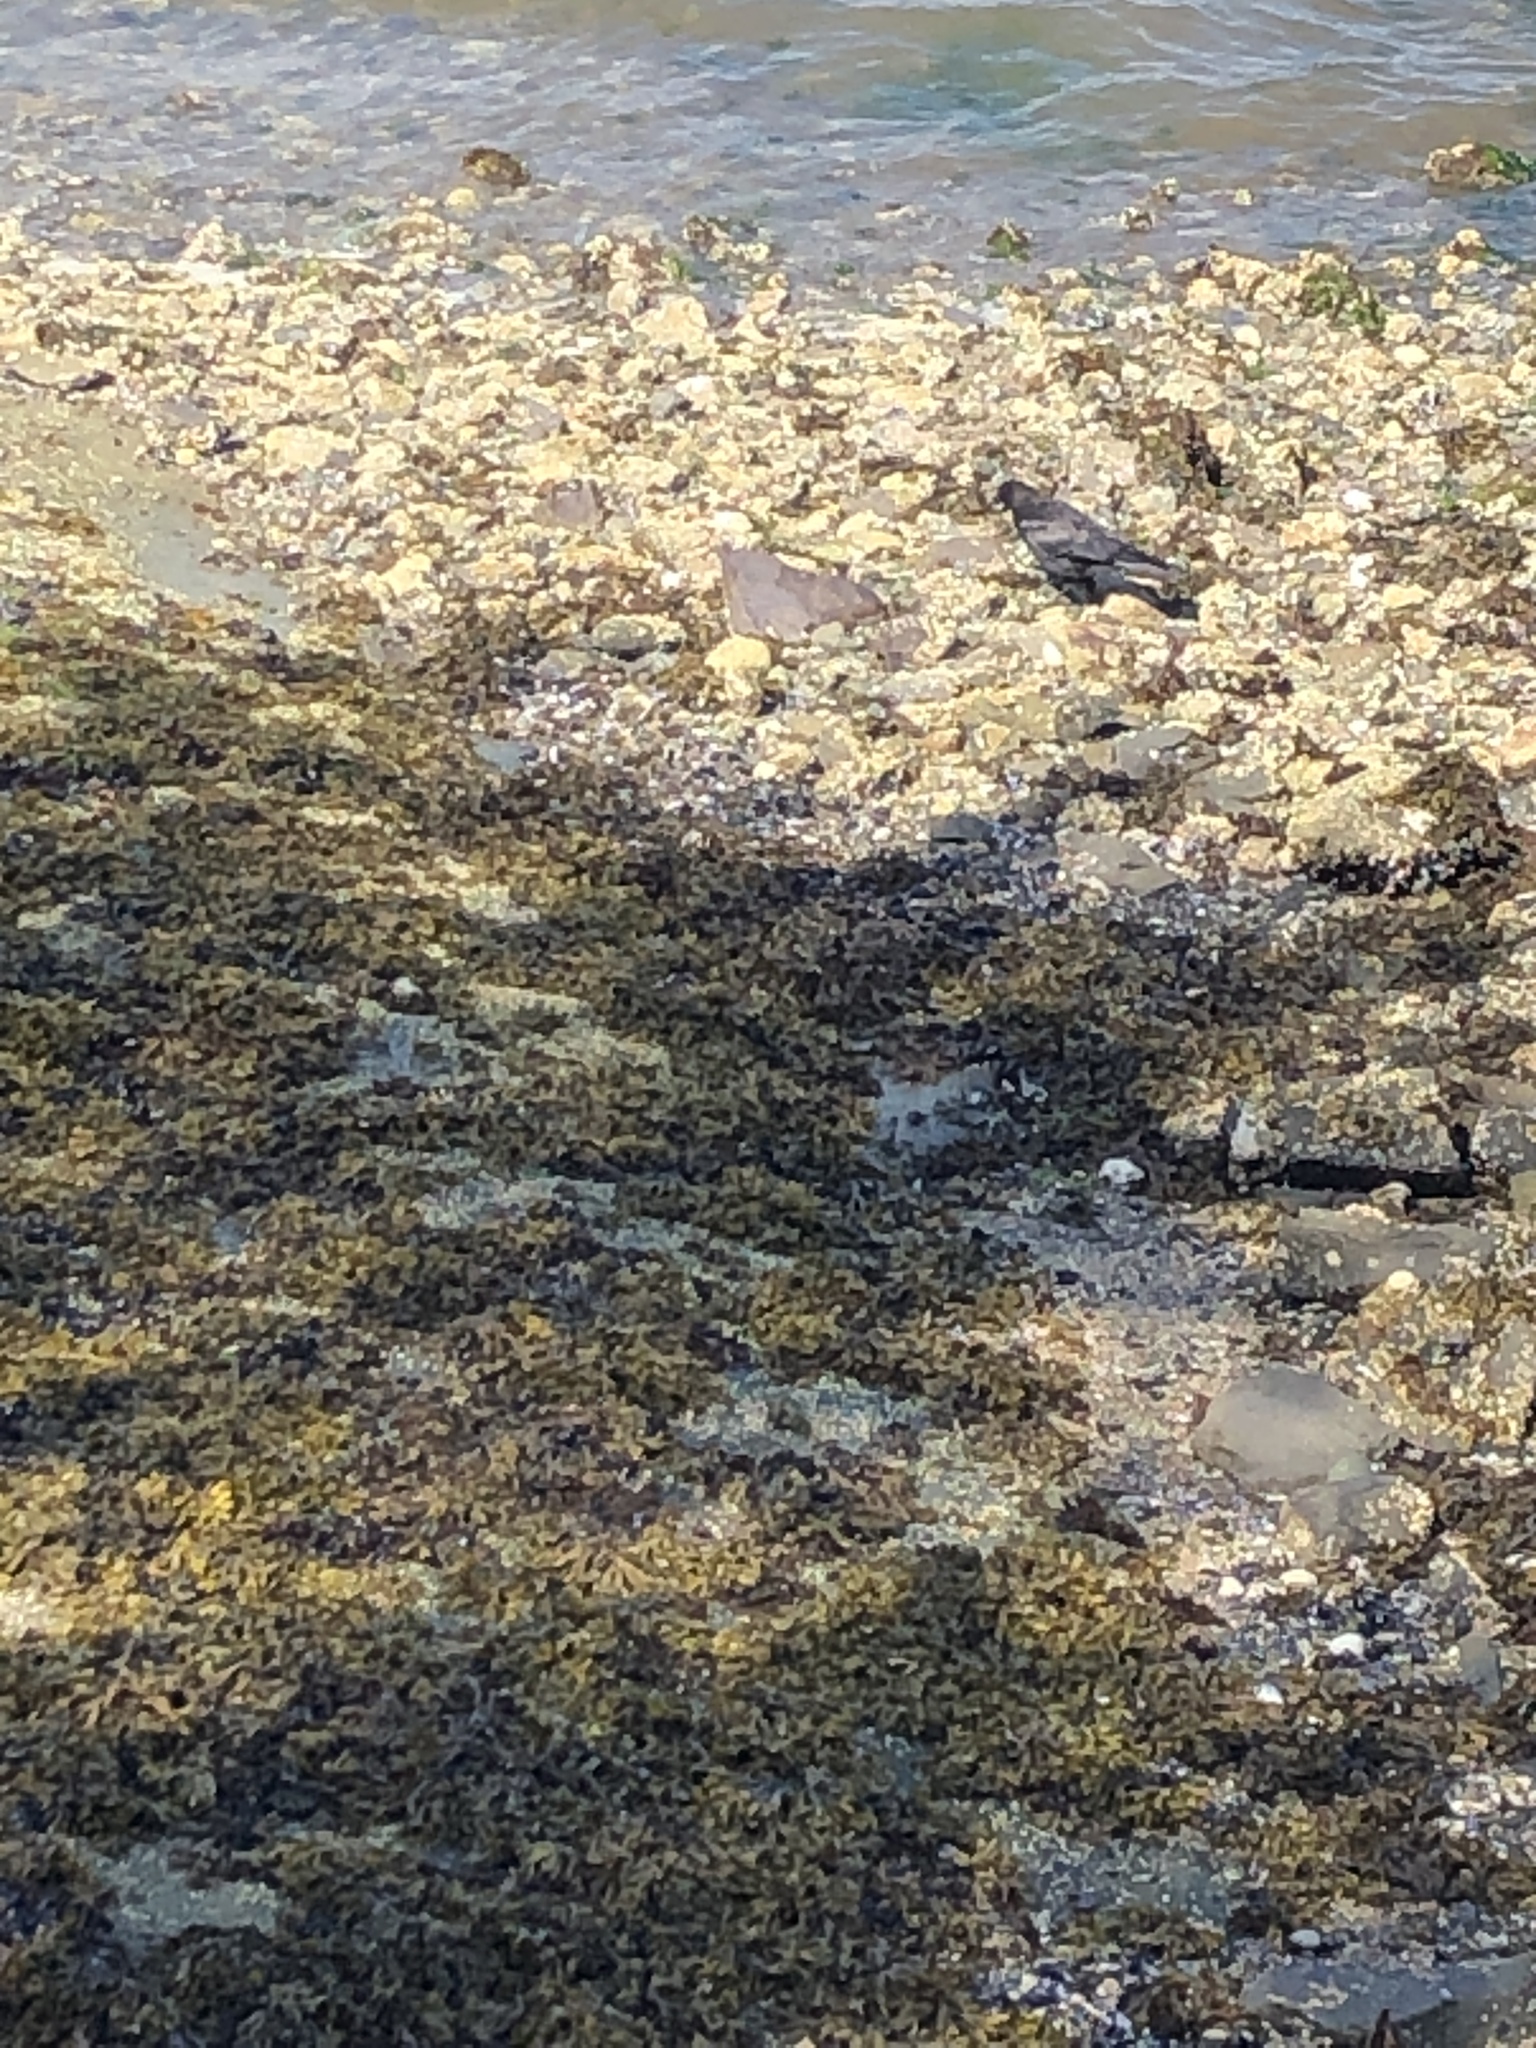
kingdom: Animalia
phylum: Chordata
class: Aves
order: Passeriformes
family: Corvidae
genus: Corvus
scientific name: Corvus brachyrhynchos
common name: American crow
